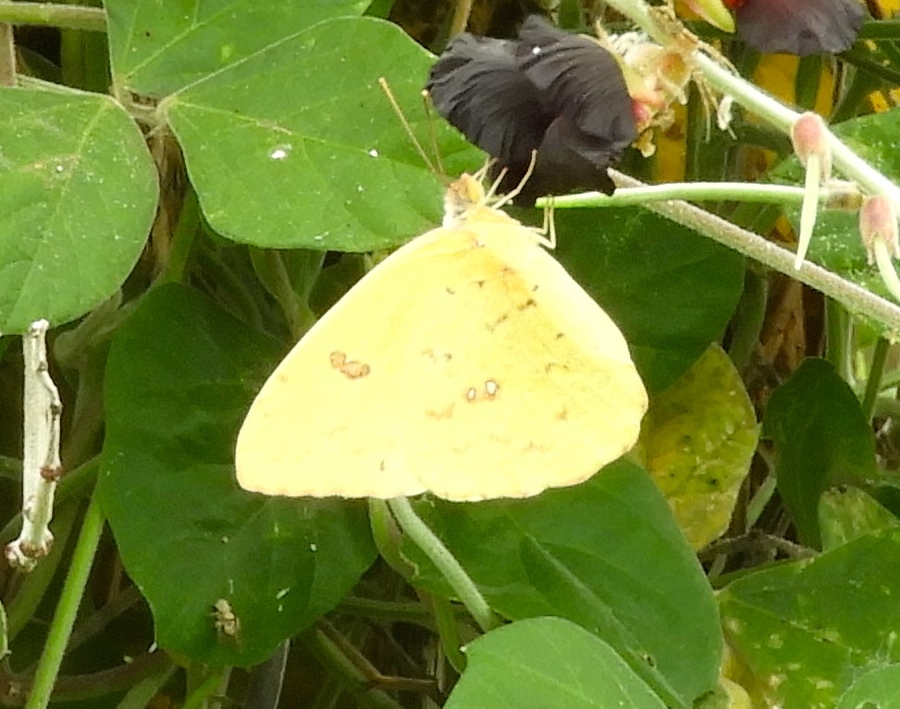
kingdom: Animalia
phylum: Arthropoda
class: Insecta
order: Lepidoptera
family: Pieridae
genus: Phoebis
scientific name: Phoebis
